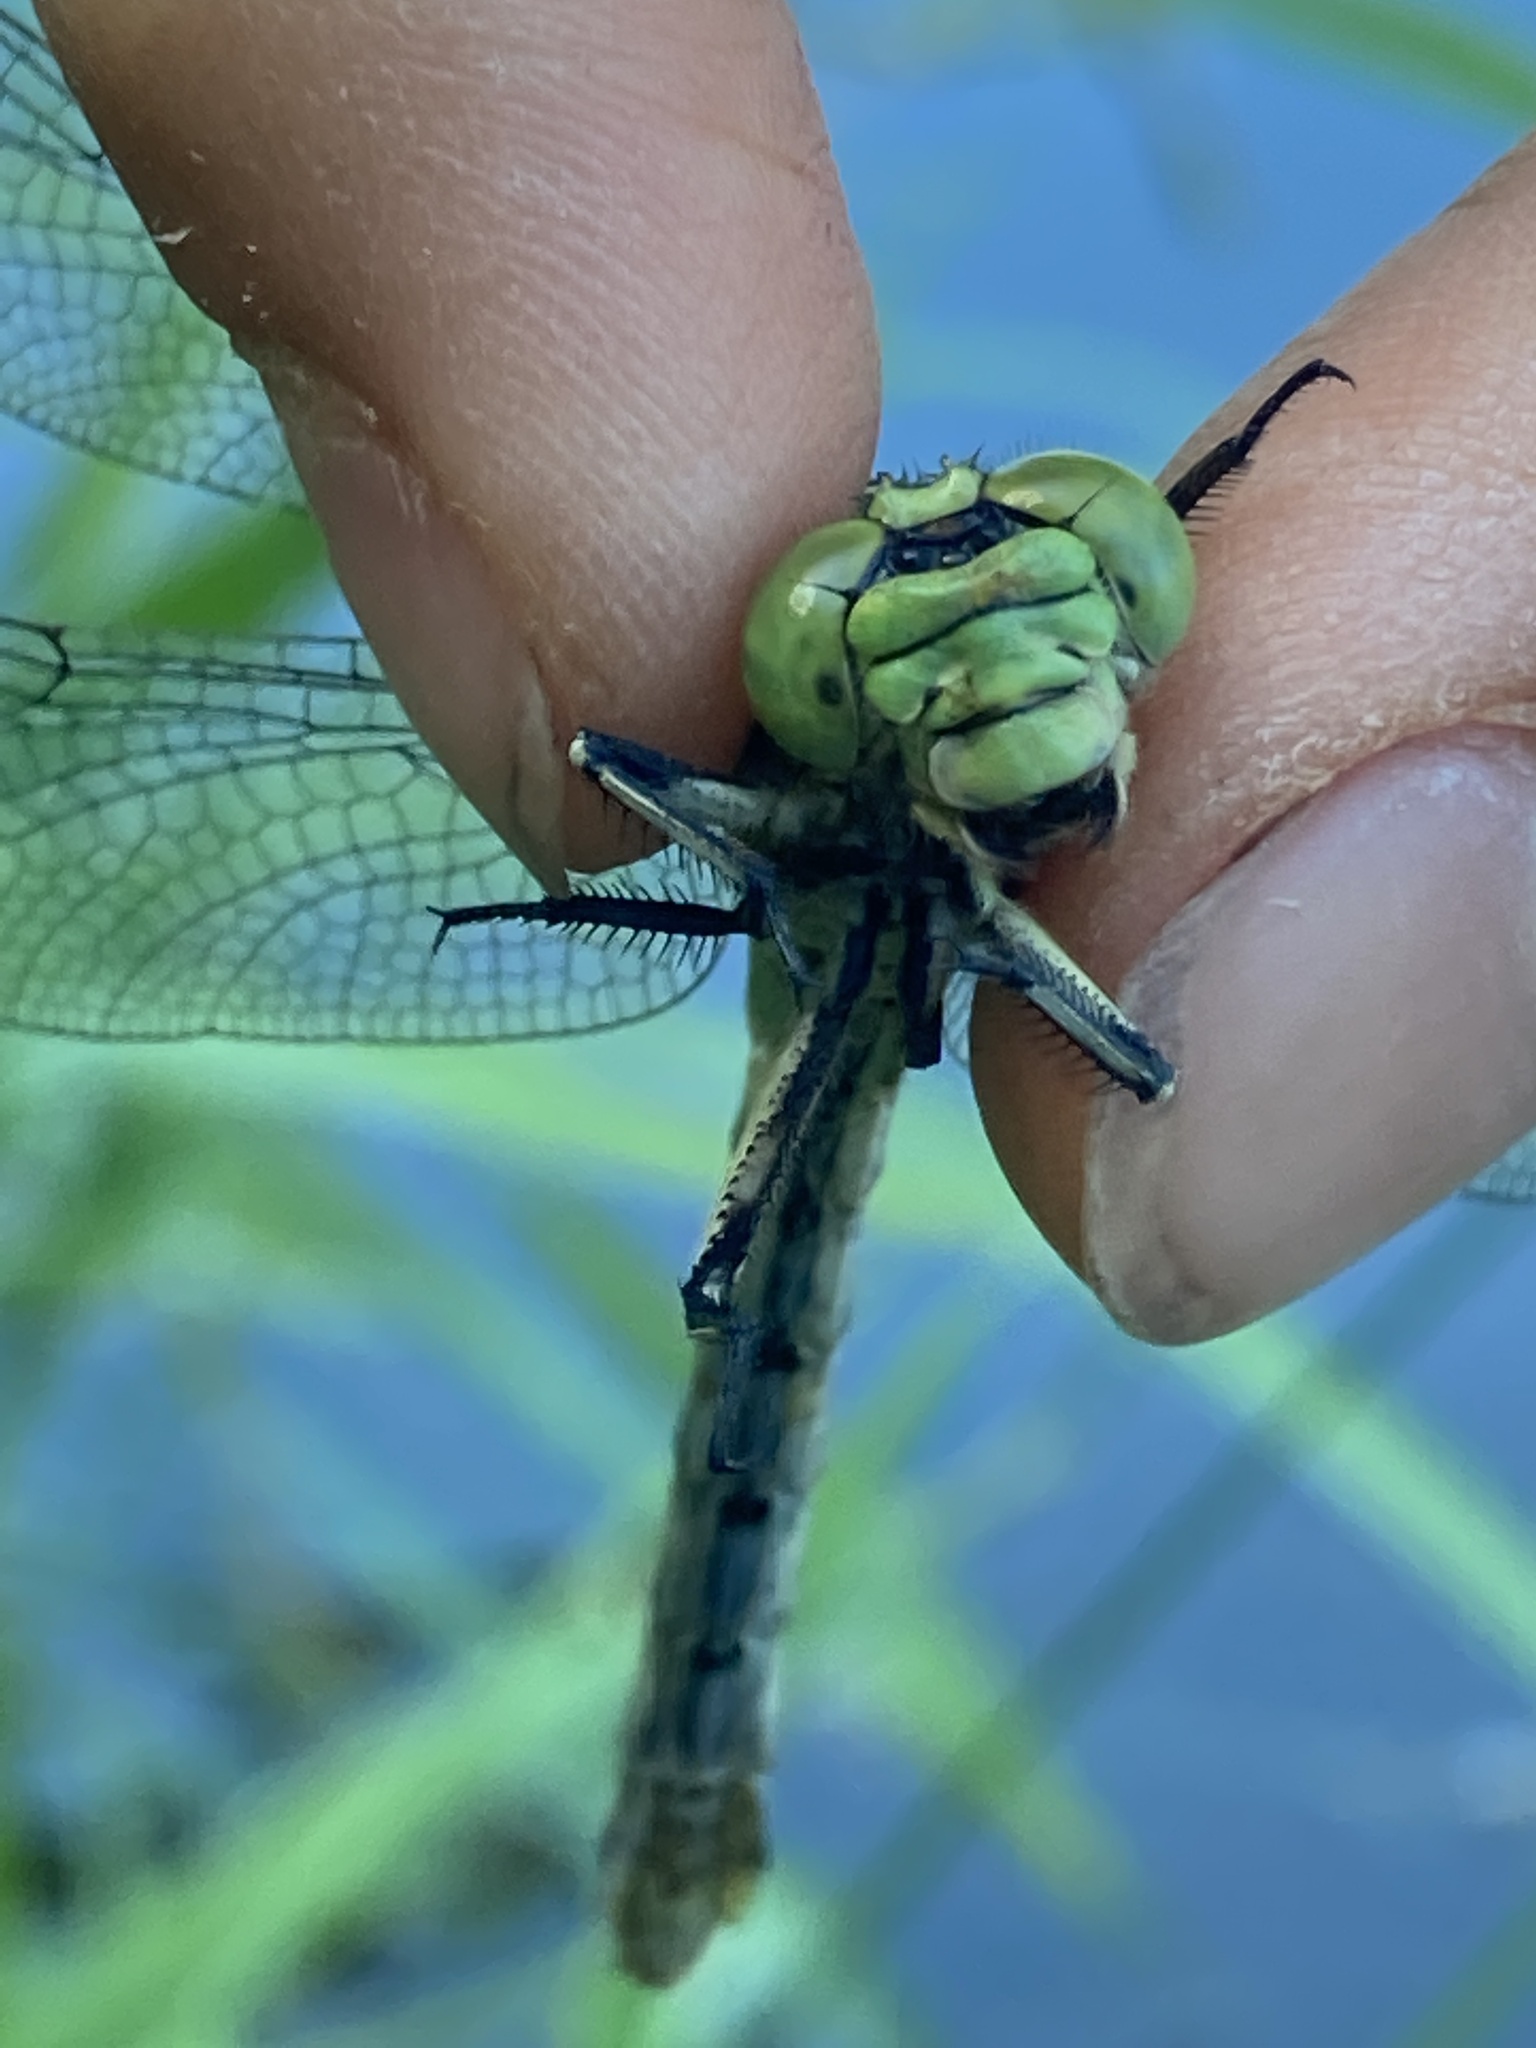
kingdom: Animalia
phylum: Arthropoda
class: Insecta
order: Odonata
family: Gomphidae
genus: Ophiogomphus
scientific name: Ophiogomphus cecilia
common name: Green snaketail
